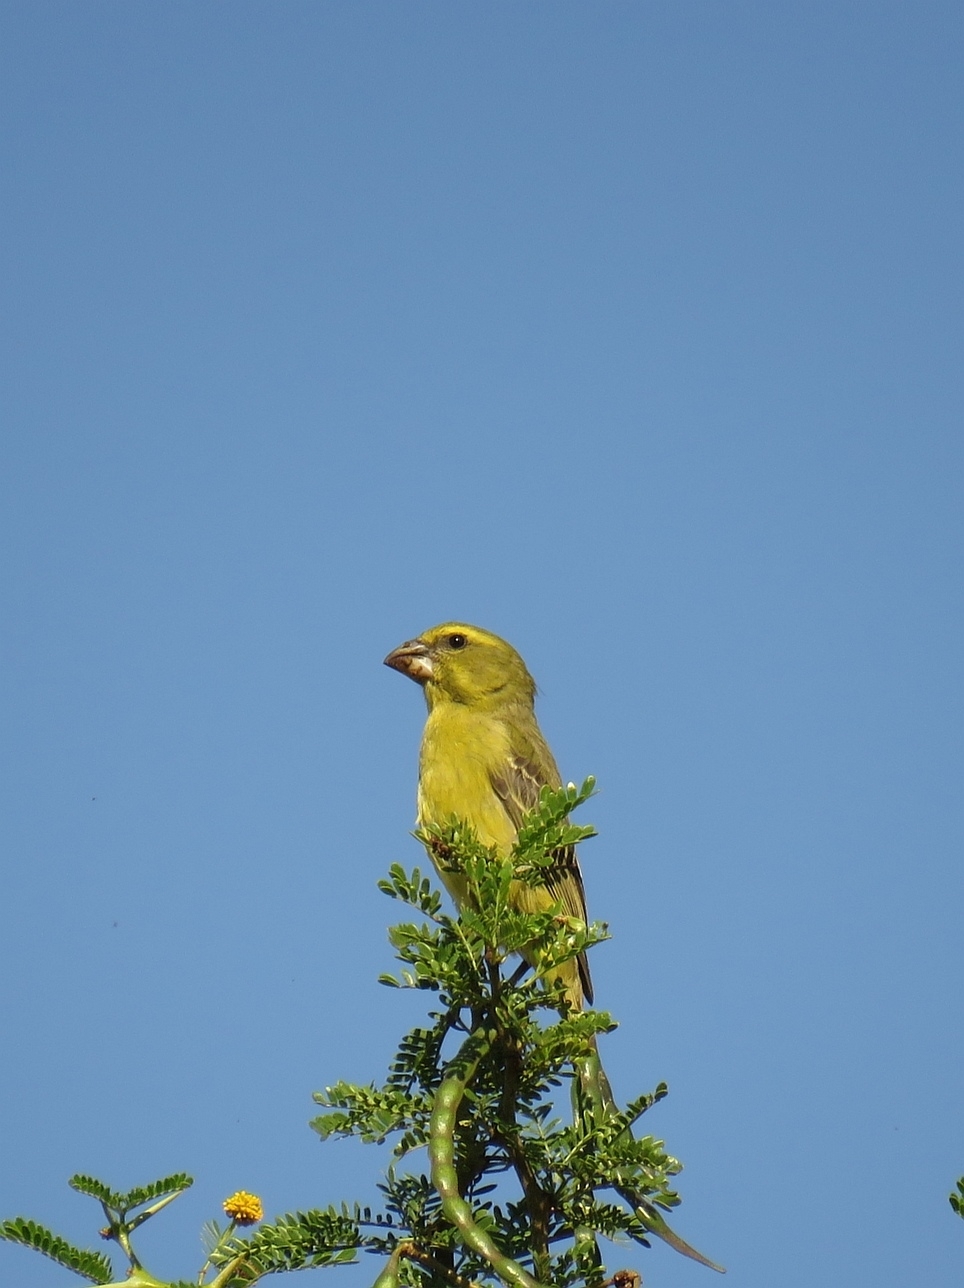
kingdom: Animalia
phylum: Chordata
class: Aves
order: Passeriformes
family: Fringillidae
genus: Crithagra
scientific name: Crithagra sulphurata
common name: Brimstone canary
